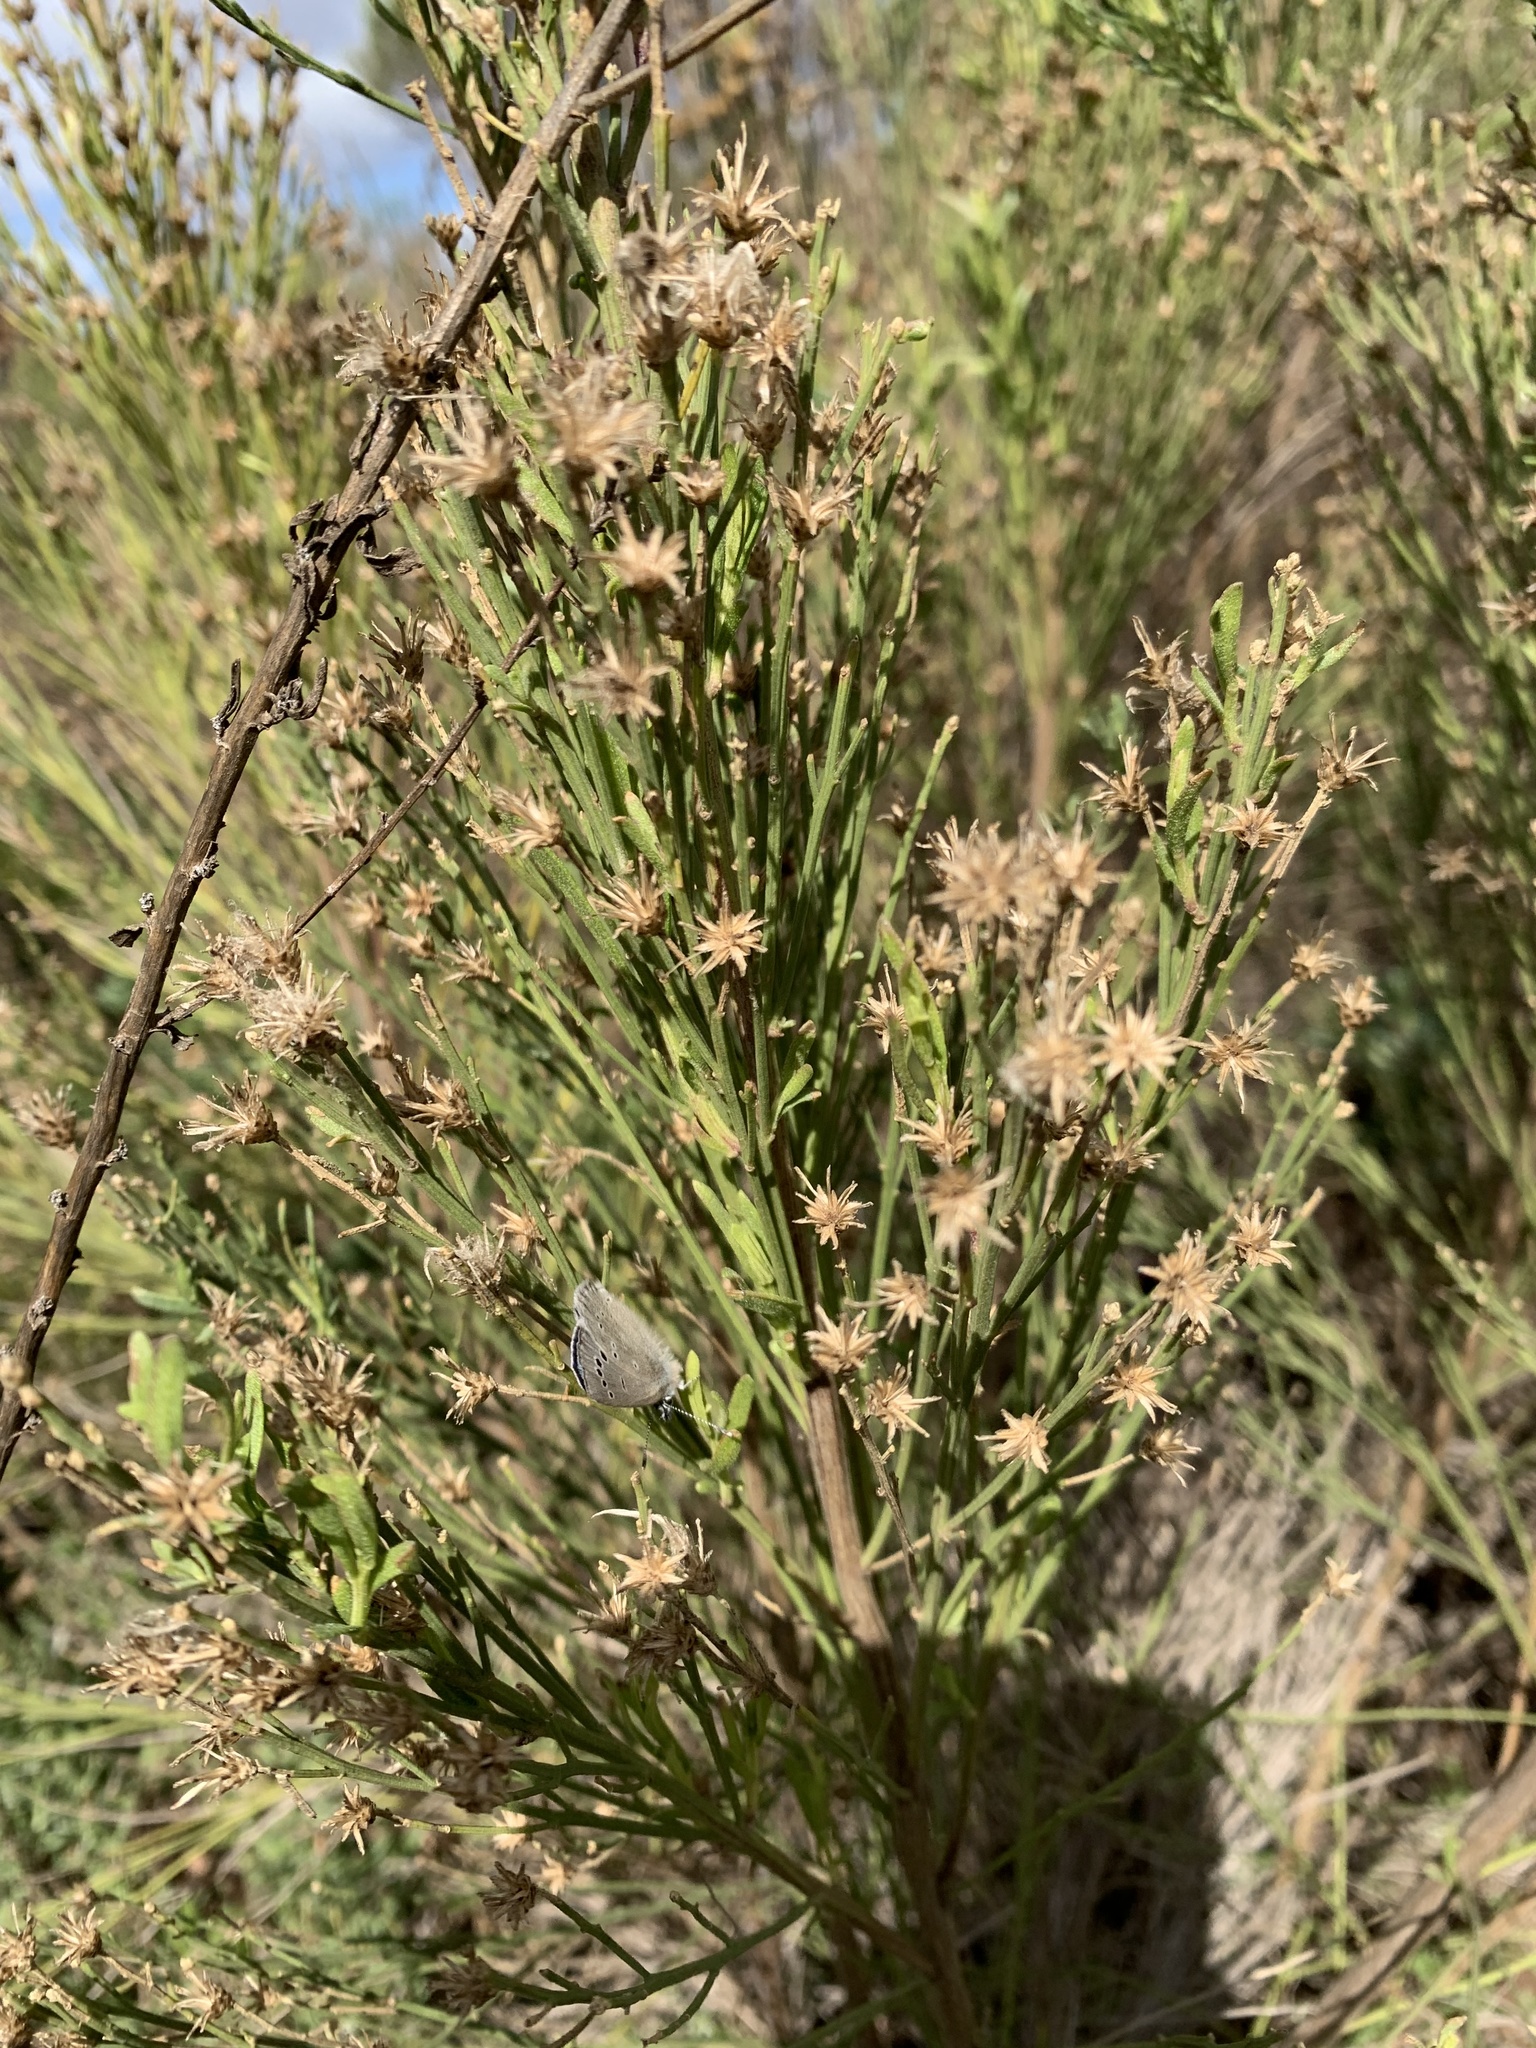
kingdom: Plantae
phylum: Tracheophyta
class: Magnoliopsida
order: Asterales
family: Asteraceae
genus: Baccharis
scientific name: Baccharis sarothroides
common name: Desert-broom
